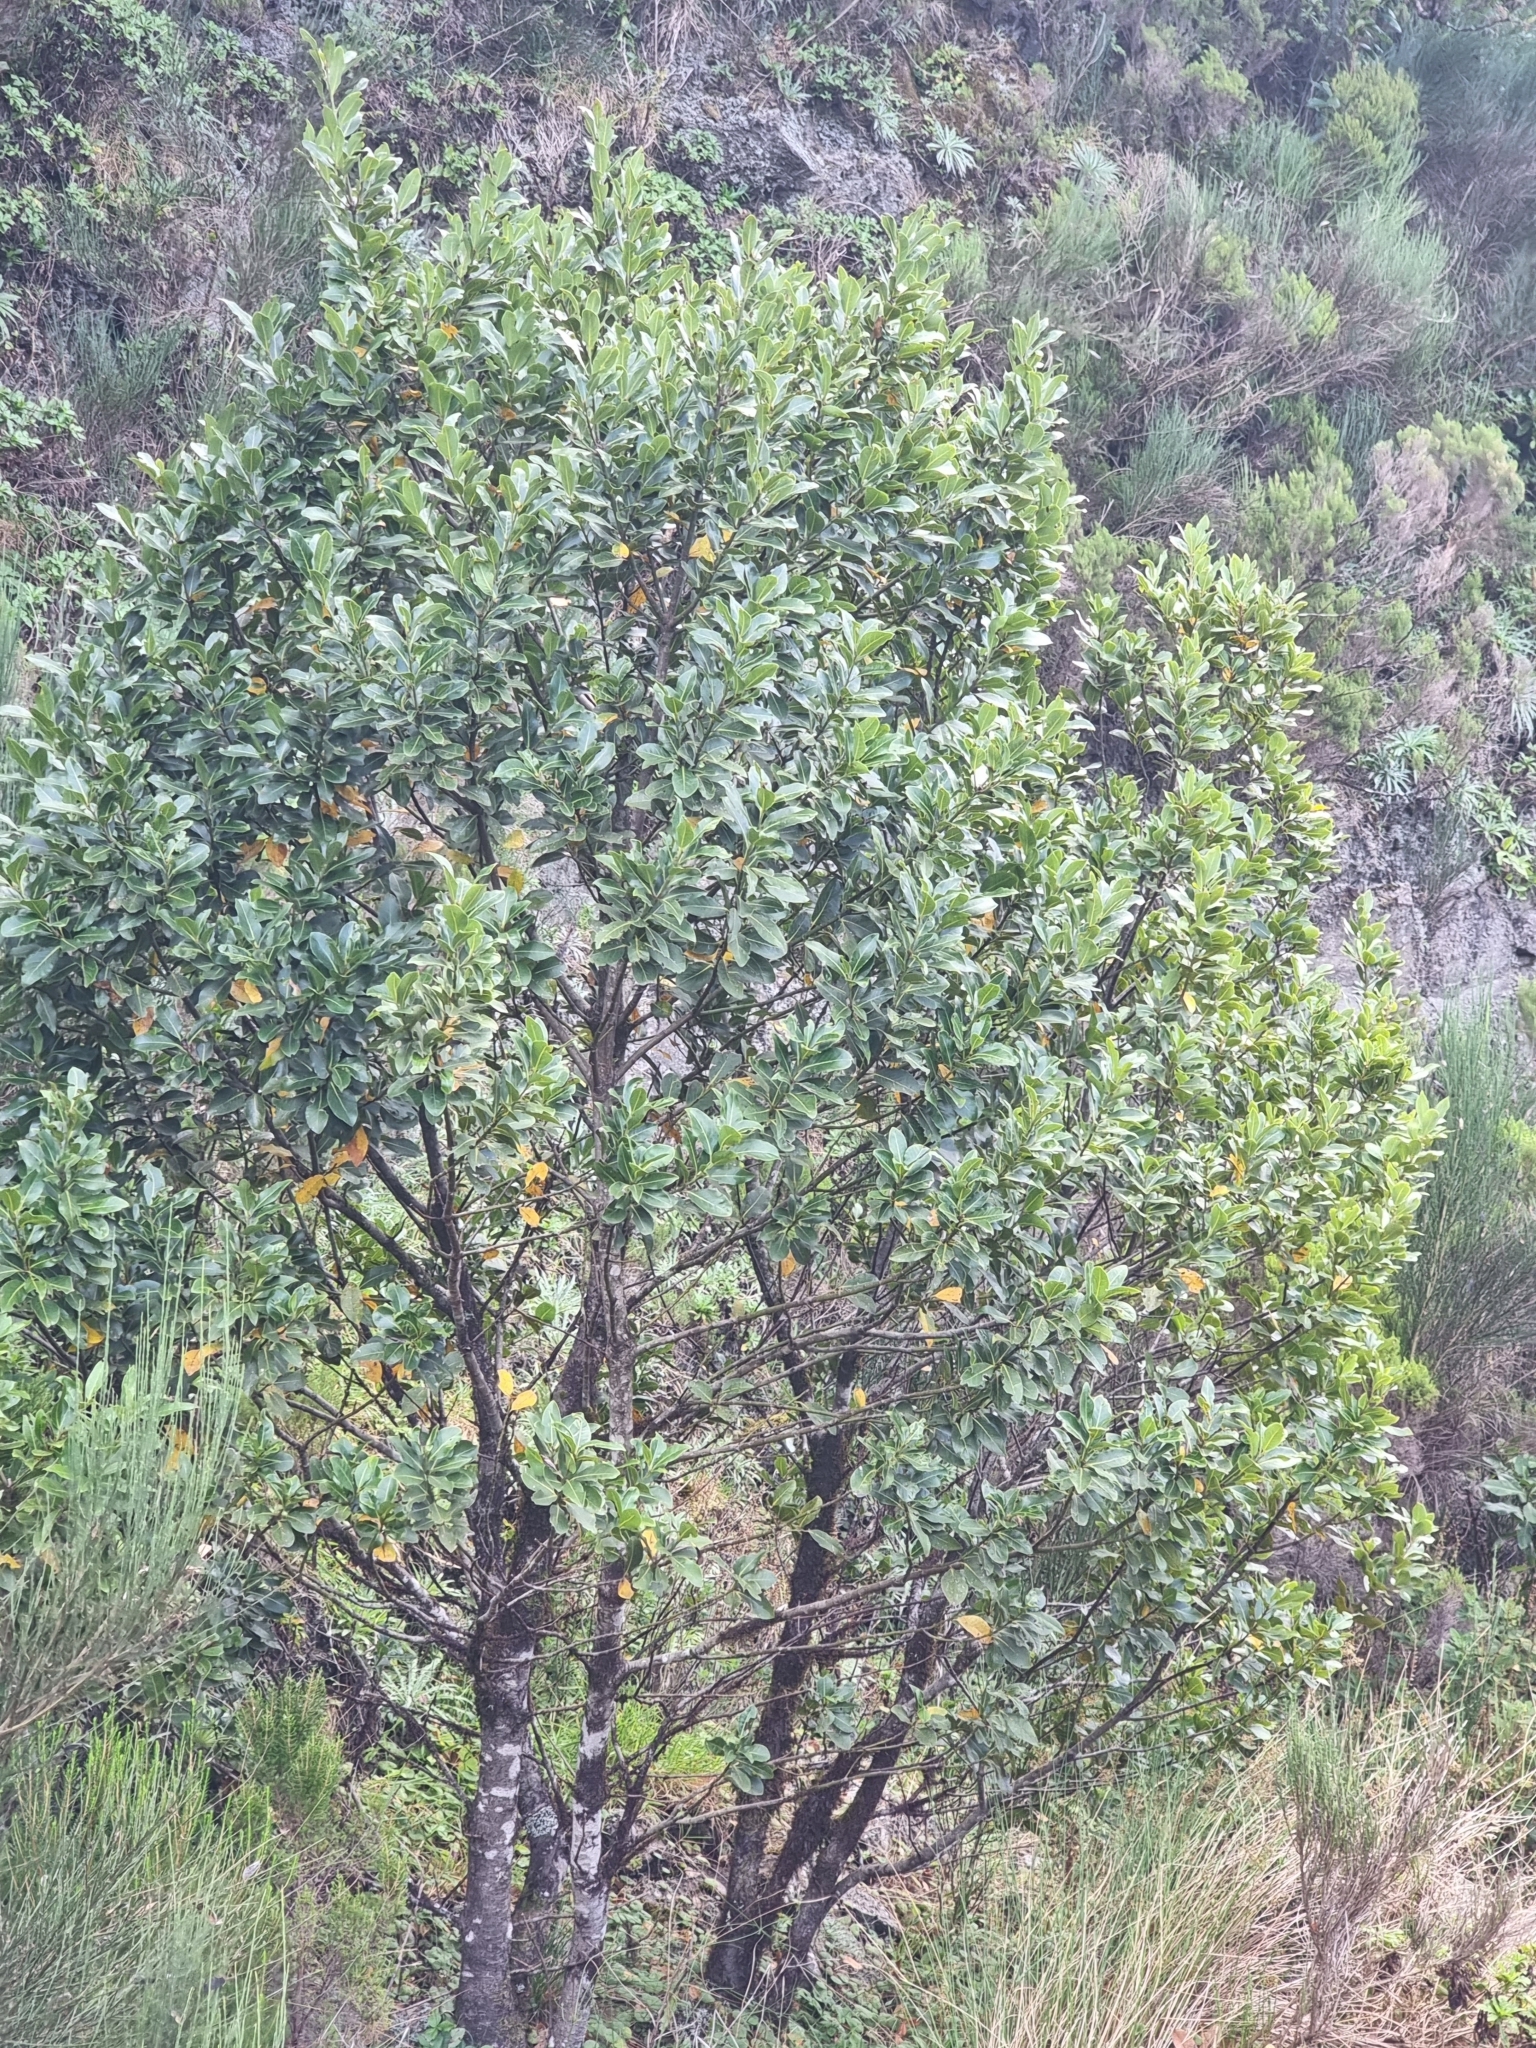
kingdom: Plantae
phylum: Tracheophyta
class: Magnoliopsida
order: Laurales
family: Lauraceae
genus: Laurus
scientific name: Laurus novocanariensis
